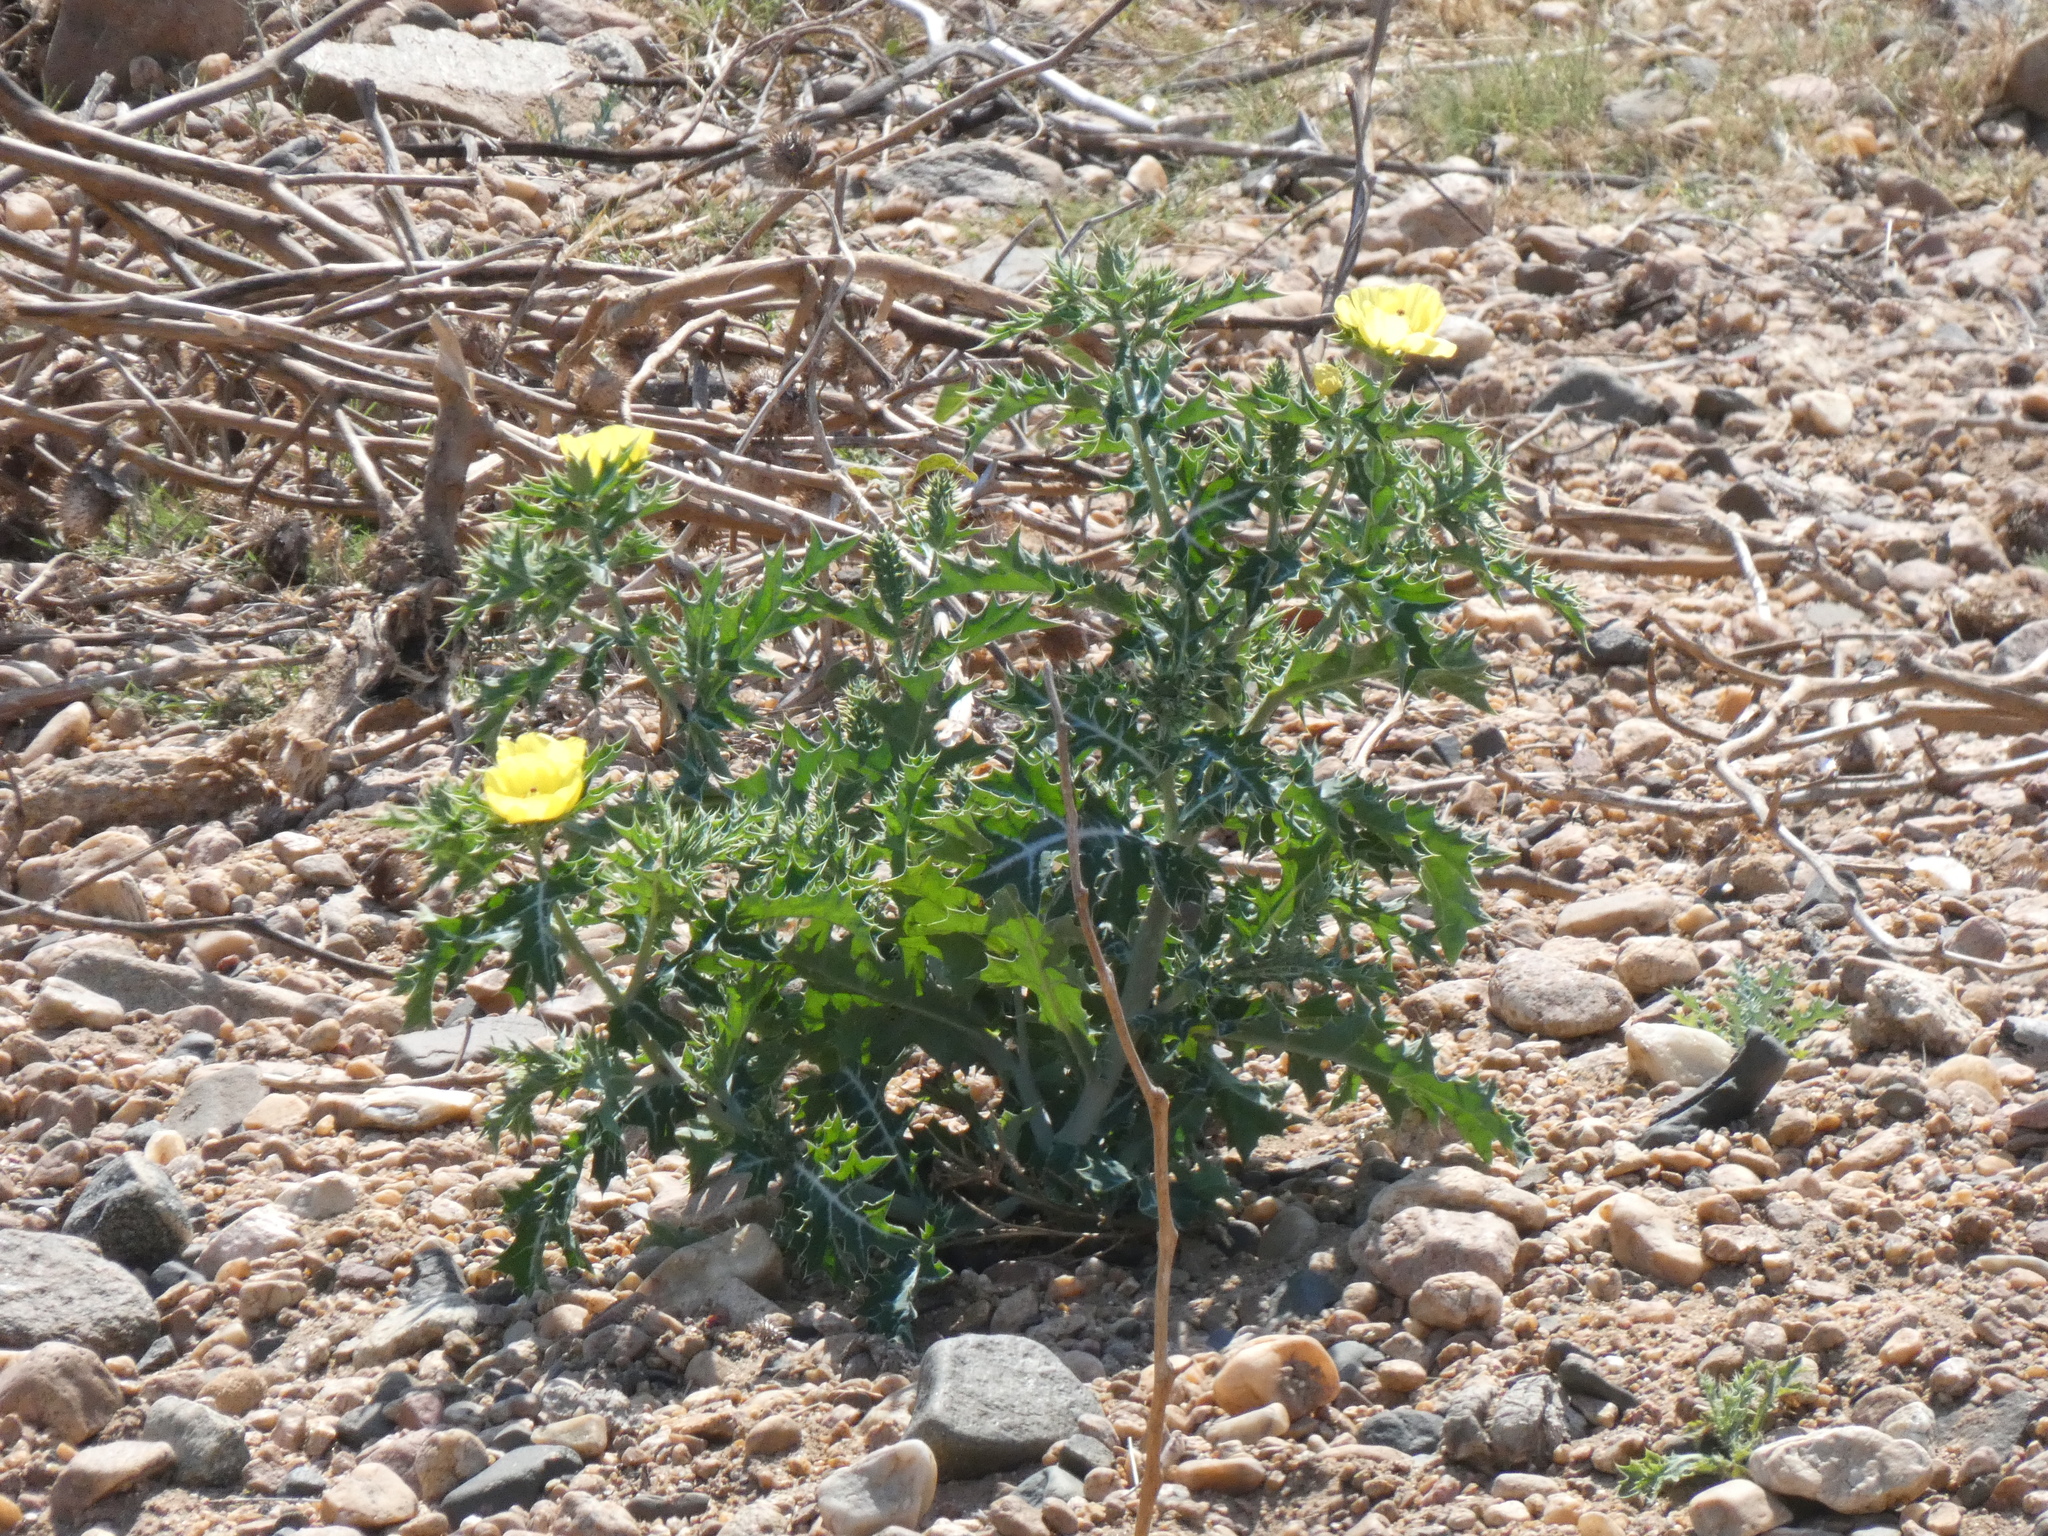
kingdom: Plantae
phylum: Tracheophyta
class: Magnoliopsida
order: Ranunculales
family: Papaveraceae
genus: Argemone
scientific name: Argemone mexicana
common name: Mexican poppy
